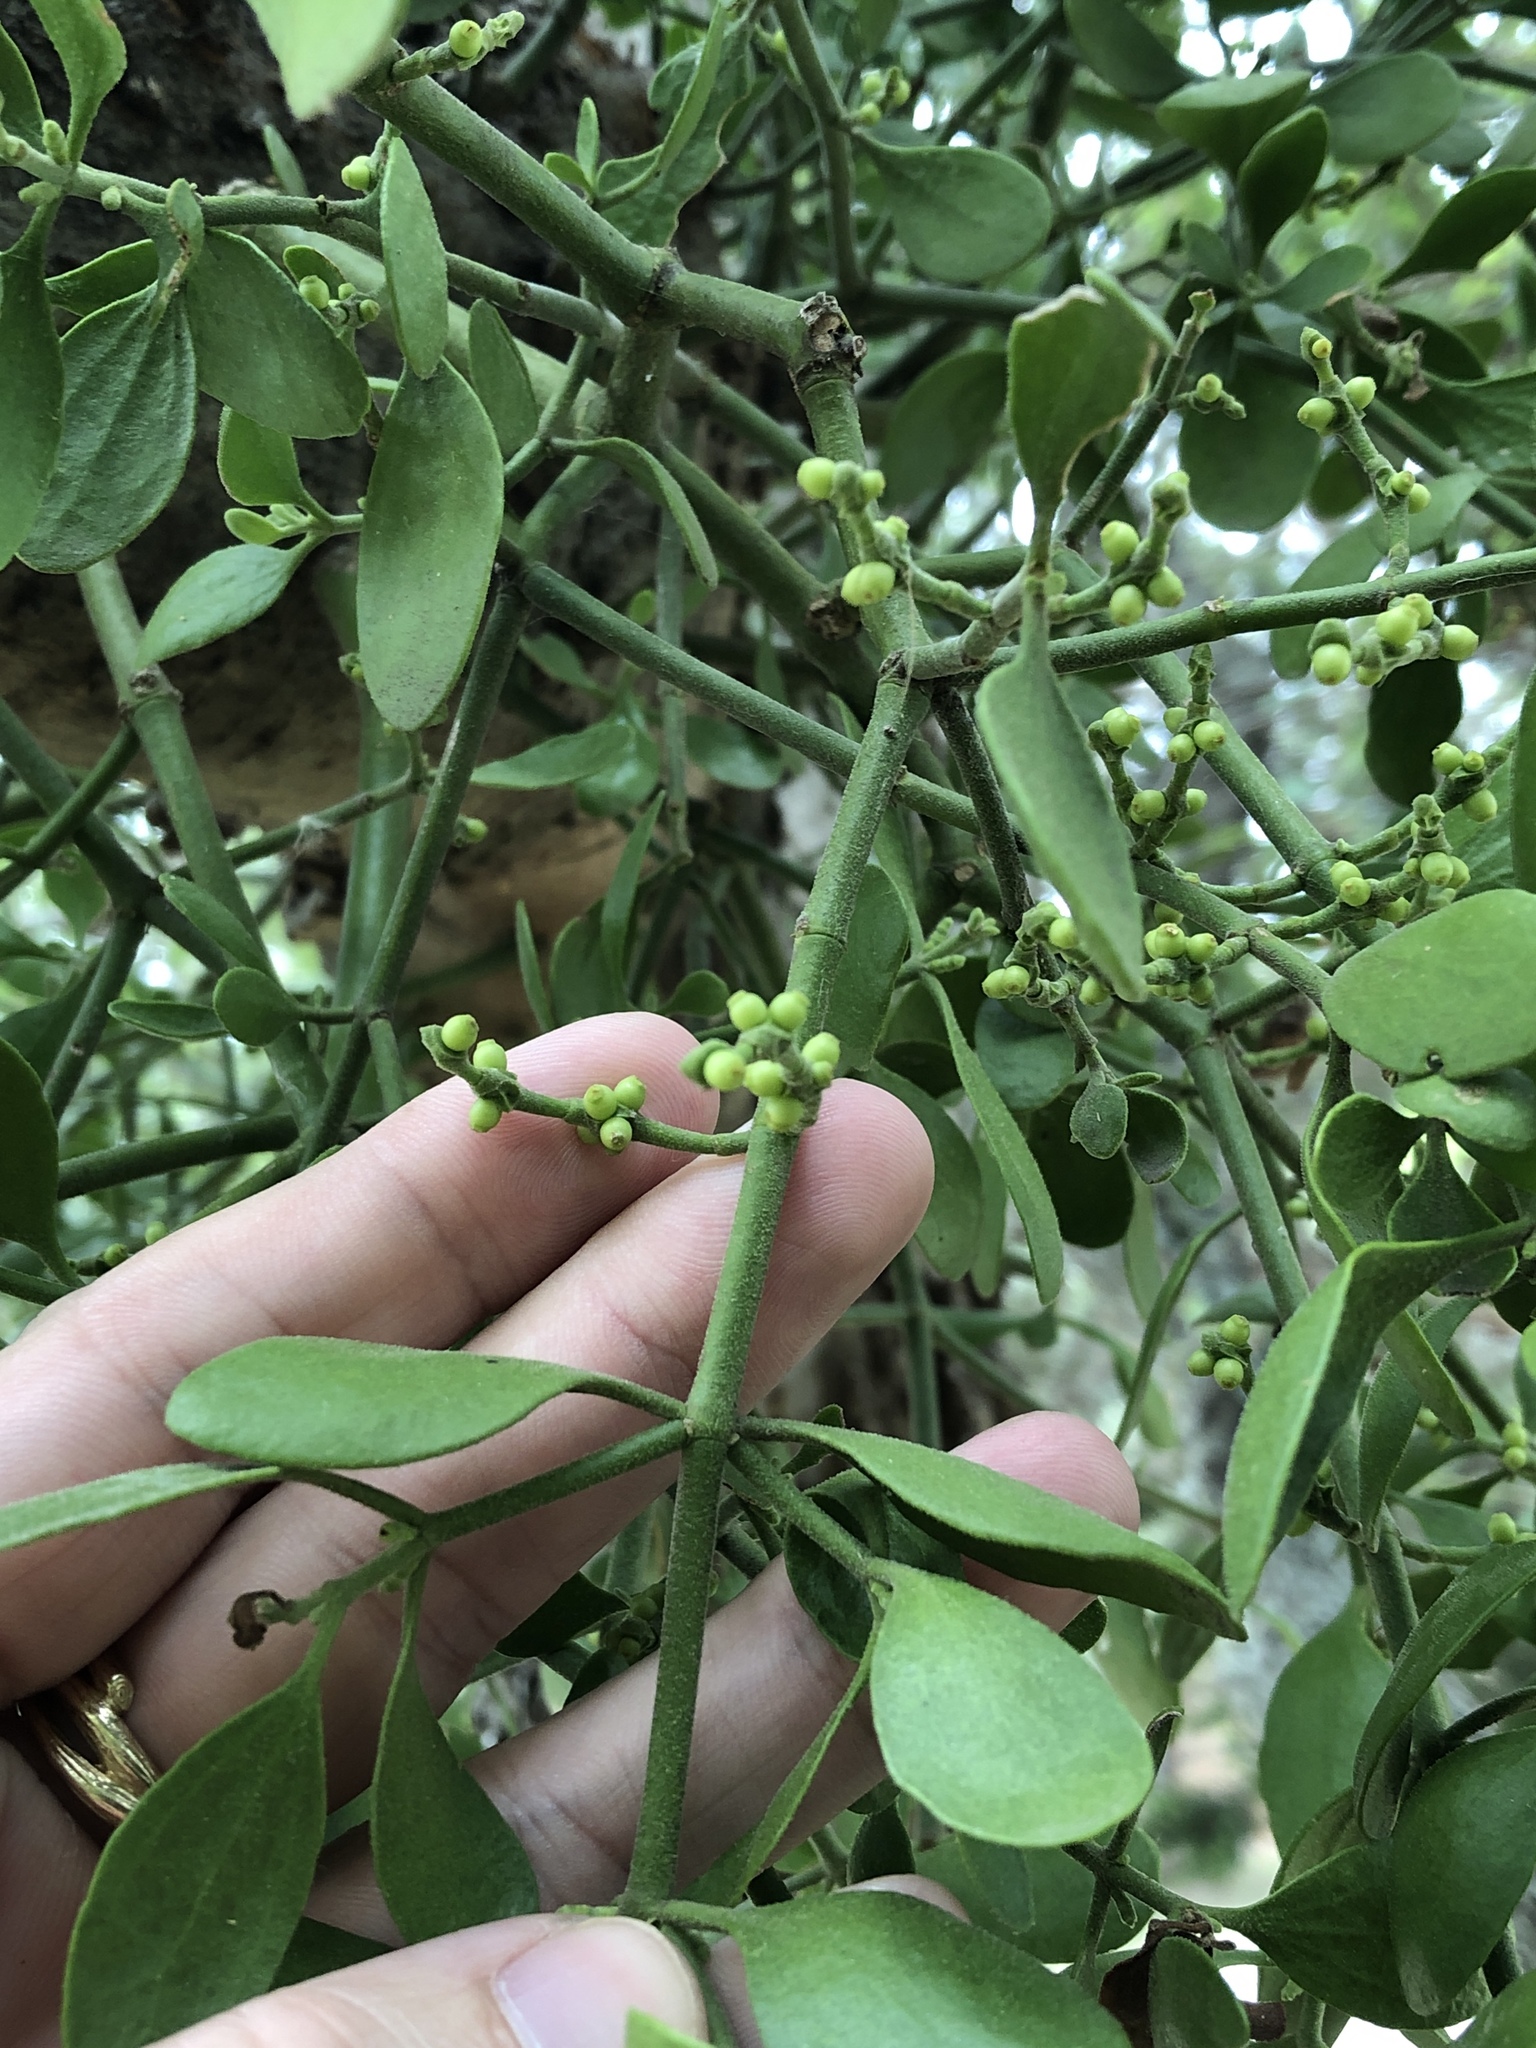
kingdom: Plantae
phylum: Tracheophyta
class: Magnoliopsida
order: Santalales
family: Viscaceae
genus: Phoradendron
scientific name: Phoradendron leucarpum
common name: Pacific mistletoe
